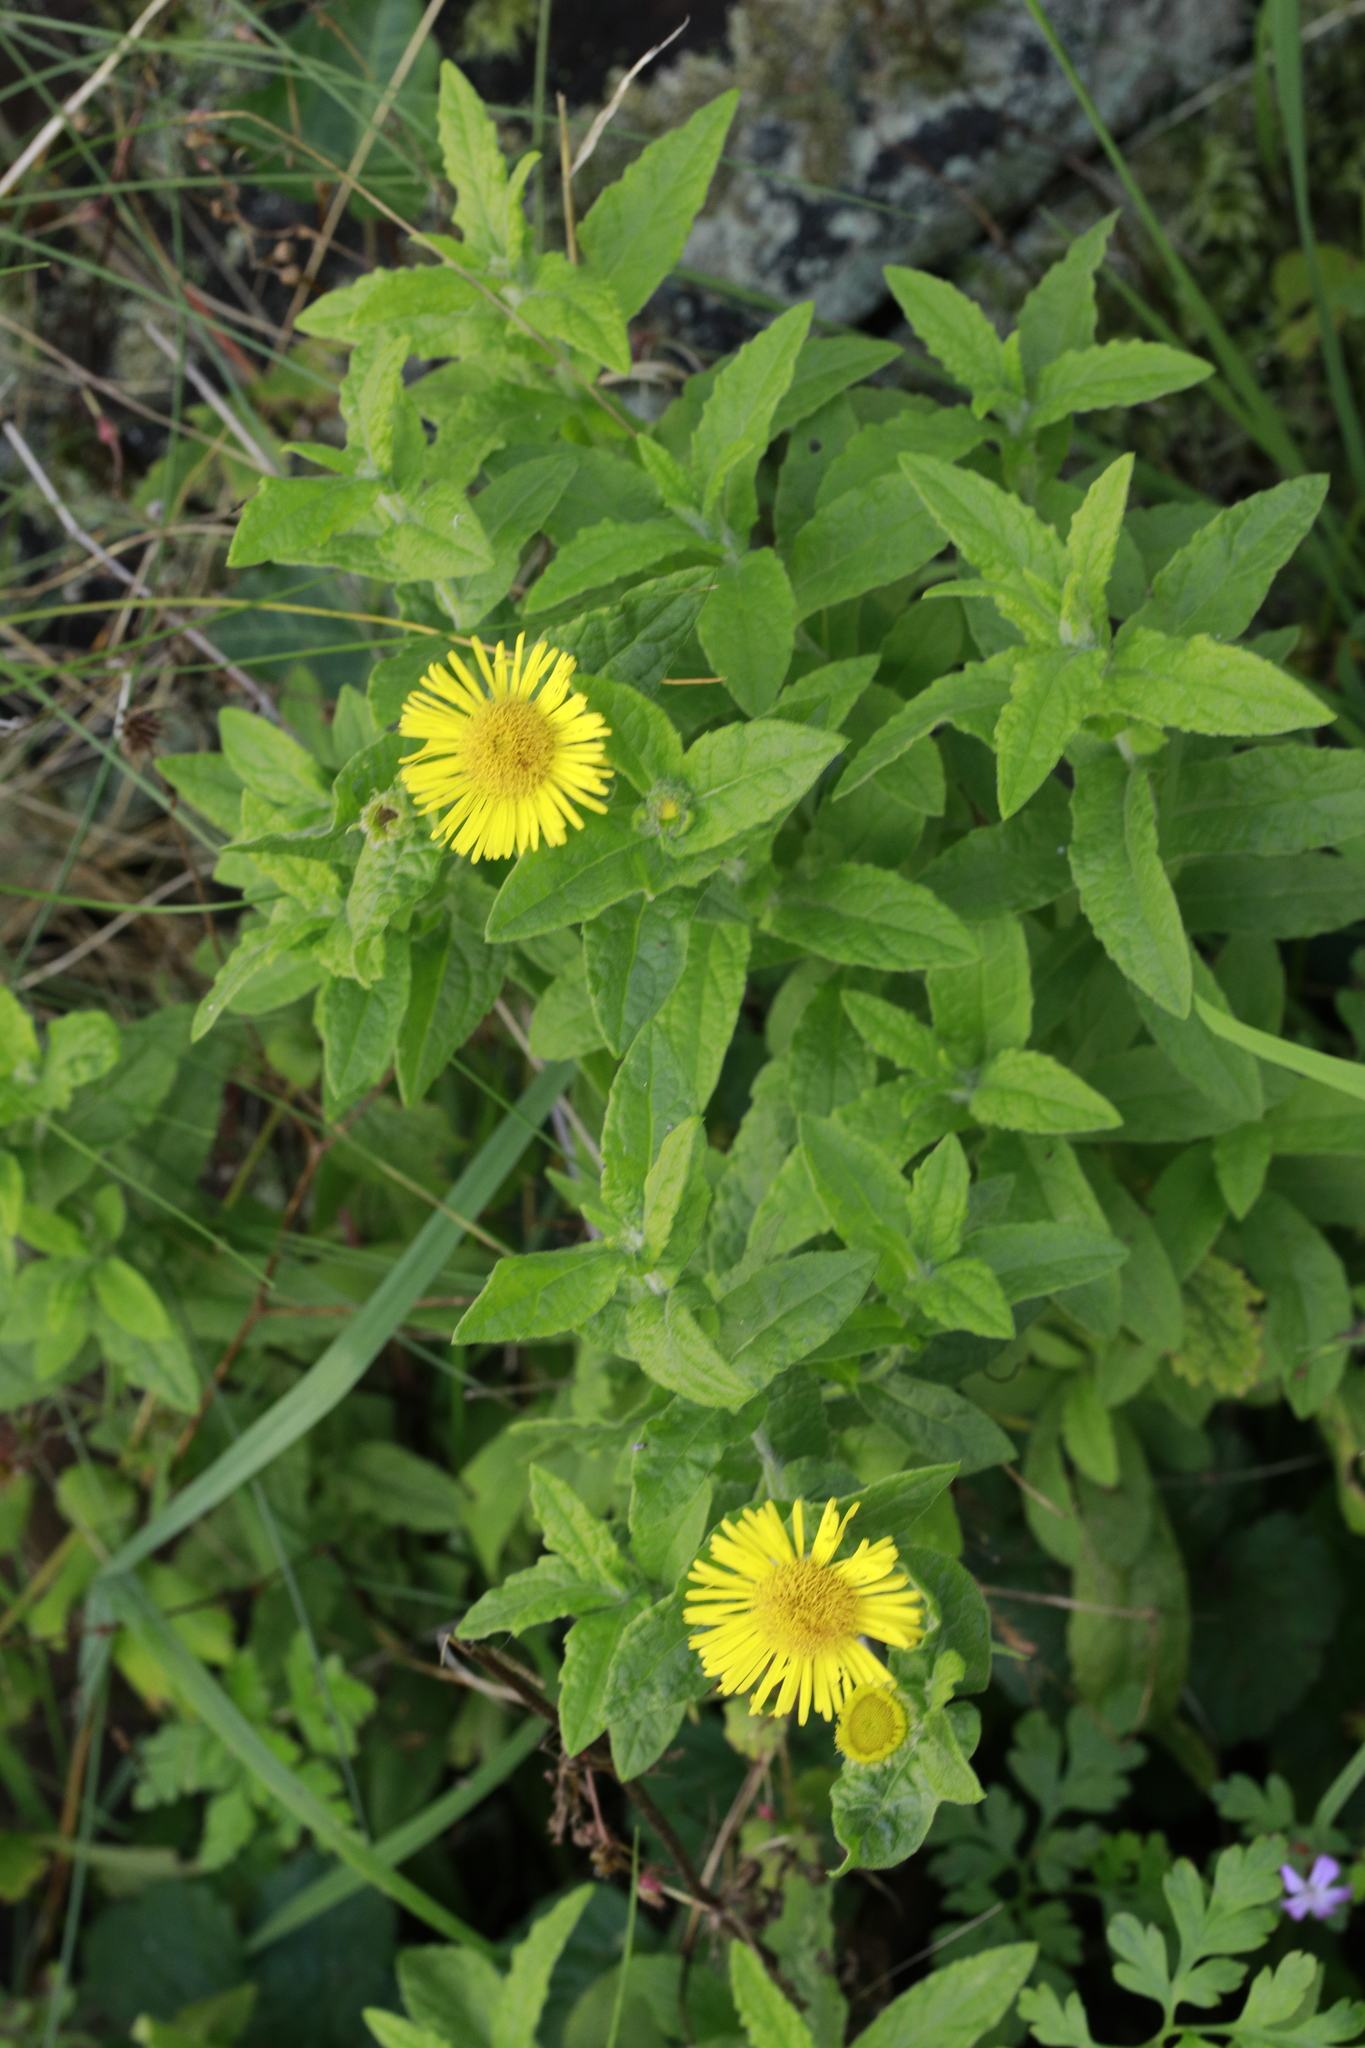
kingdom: Plantae
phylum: Tracheophyta
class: Magnoliopsida
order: Asterales
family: Asteraceae
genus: Pulicaria
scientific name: Pulicaria dysenterica
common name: Common fleabane
